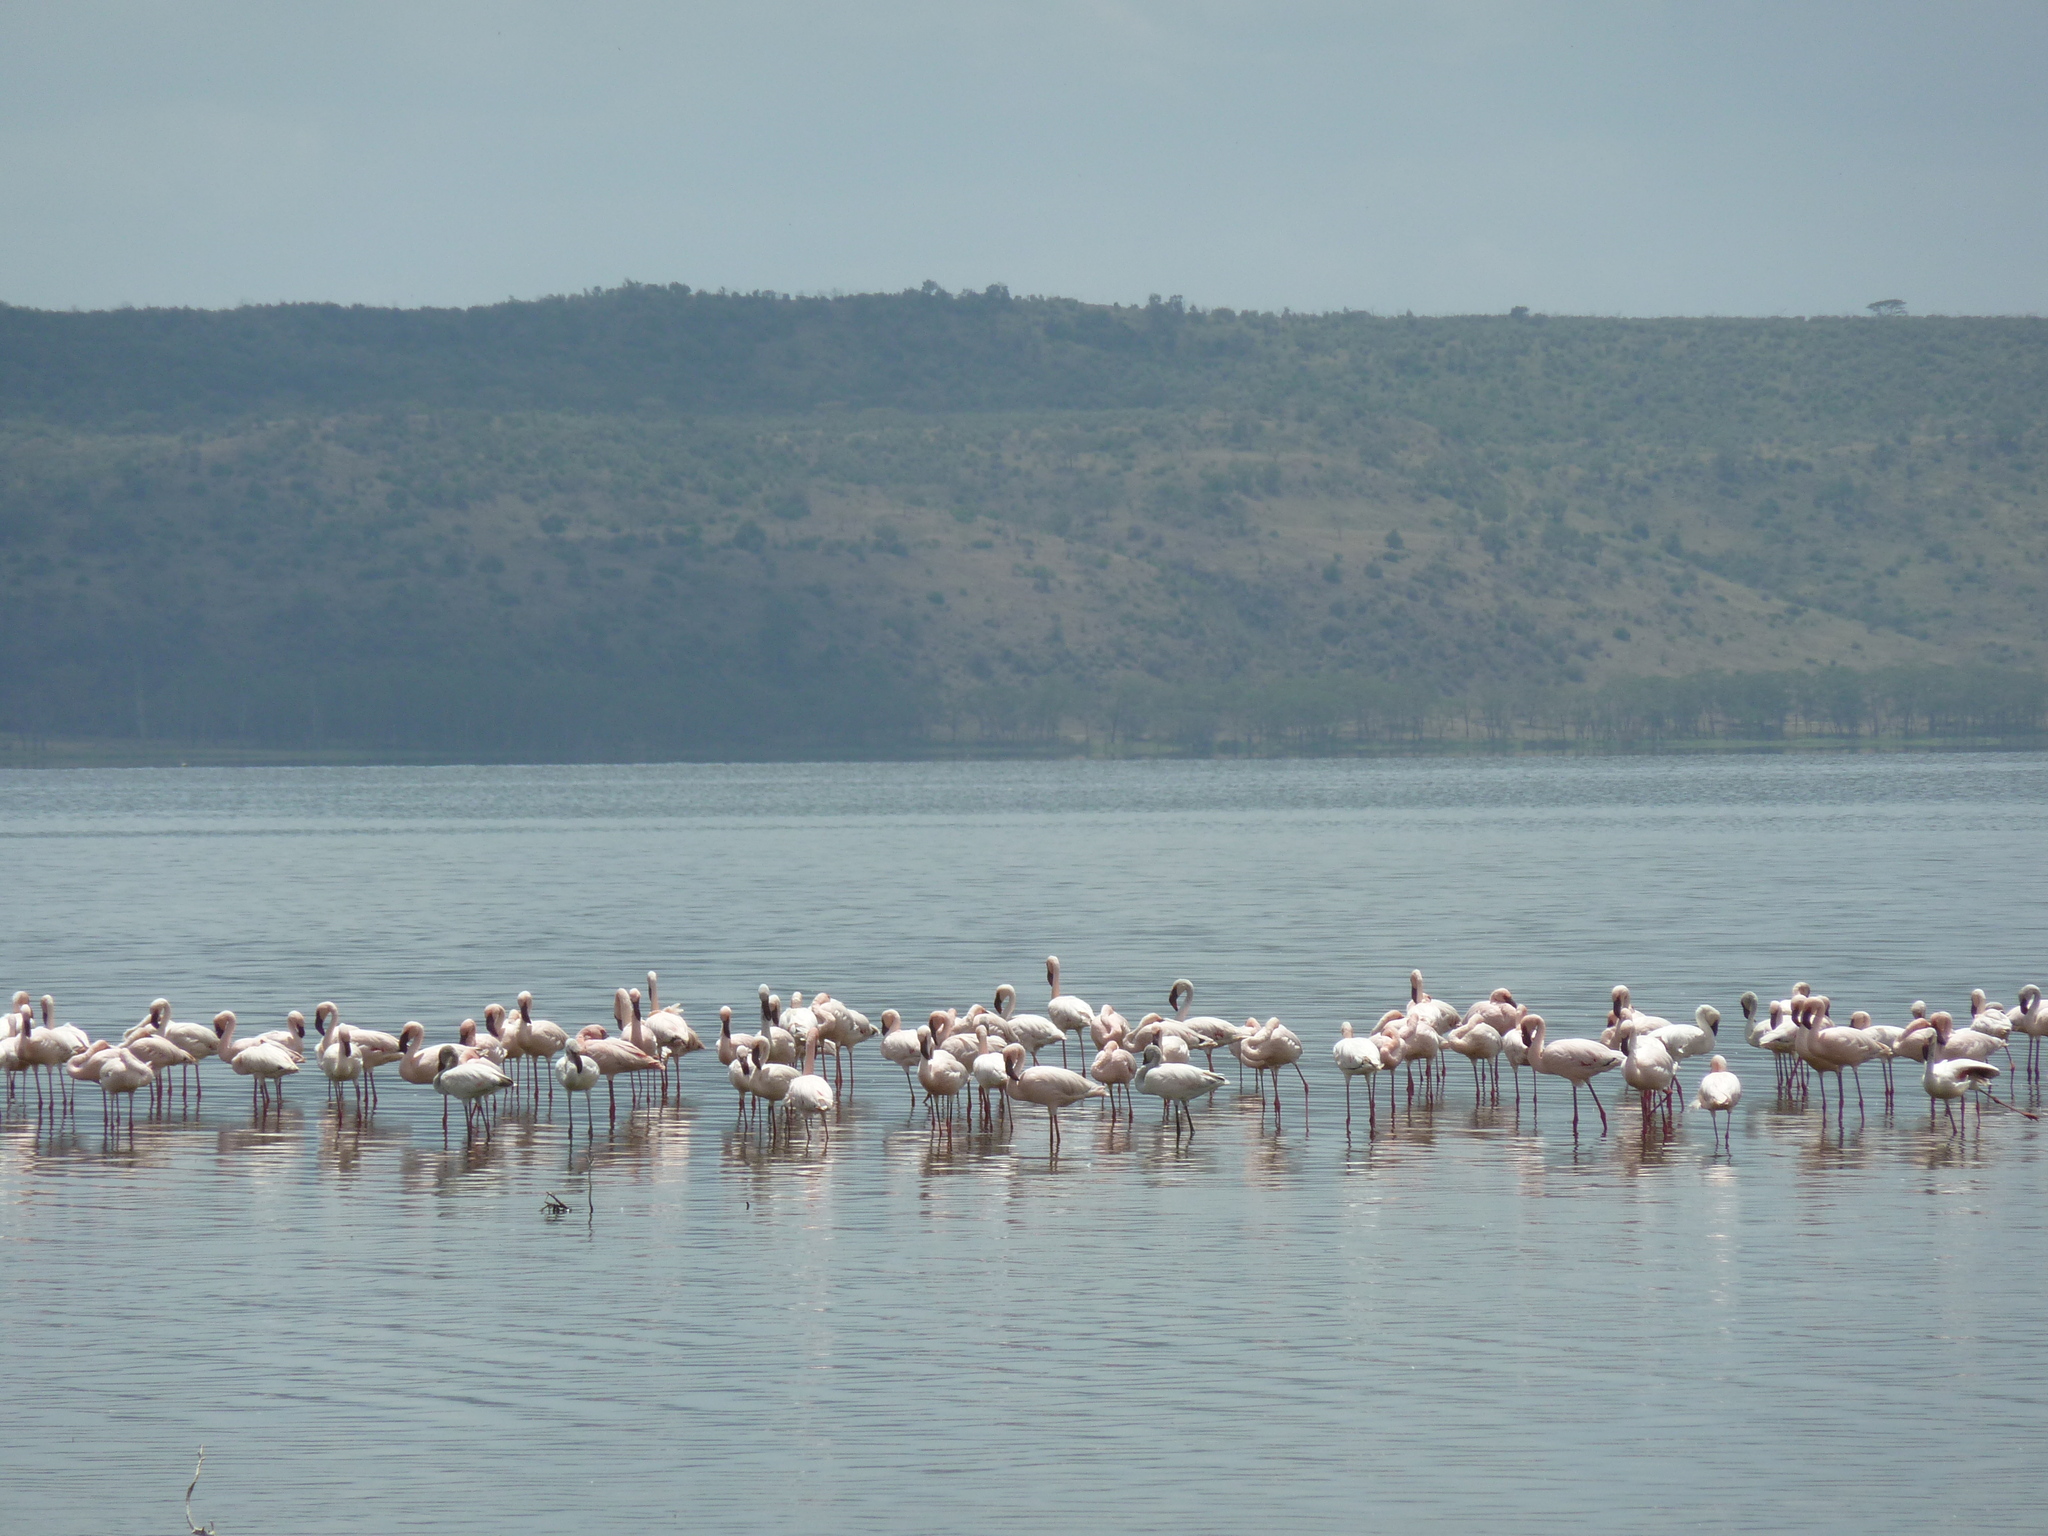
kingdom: Animalia
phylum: Chordata
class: Aves
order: Phoenicopteriformes
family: Phoenicopteridae
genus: Phoeniconaias
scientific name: Phoeniconaias minor
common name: Lesser flamingo
